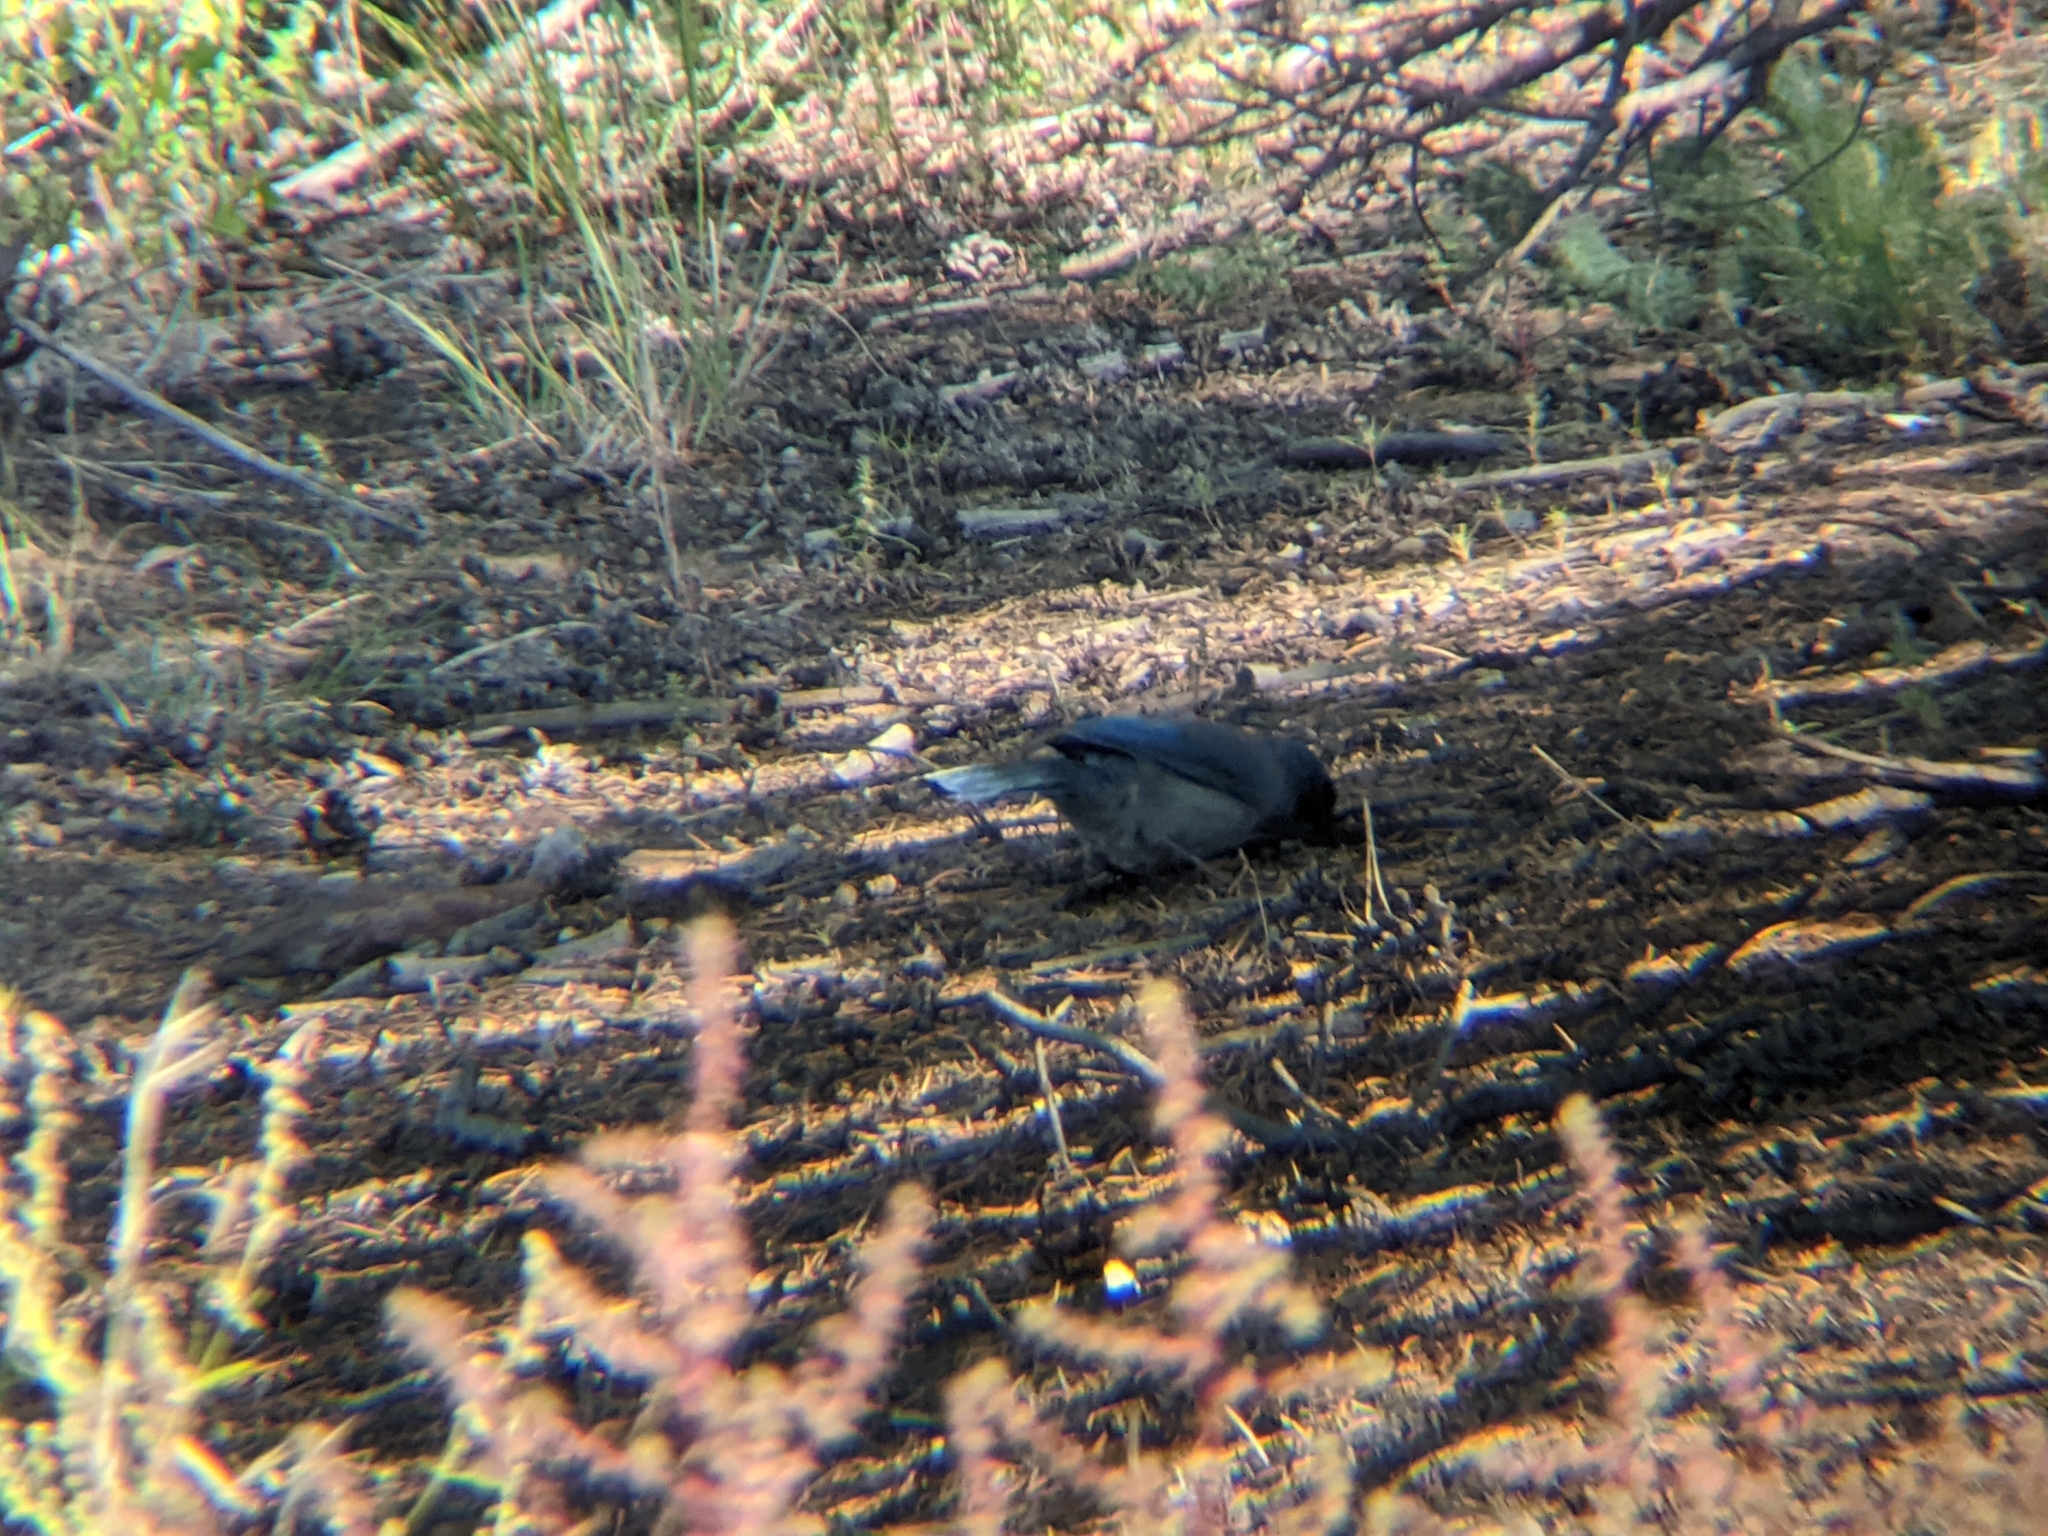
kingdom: Animalia
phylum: Chordata
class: Aves
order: Passeriformes
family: Corvidae
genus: Aphelocoma
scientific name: Aphelocoma woodhouseii
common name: Woodhouse's scrub-jay
